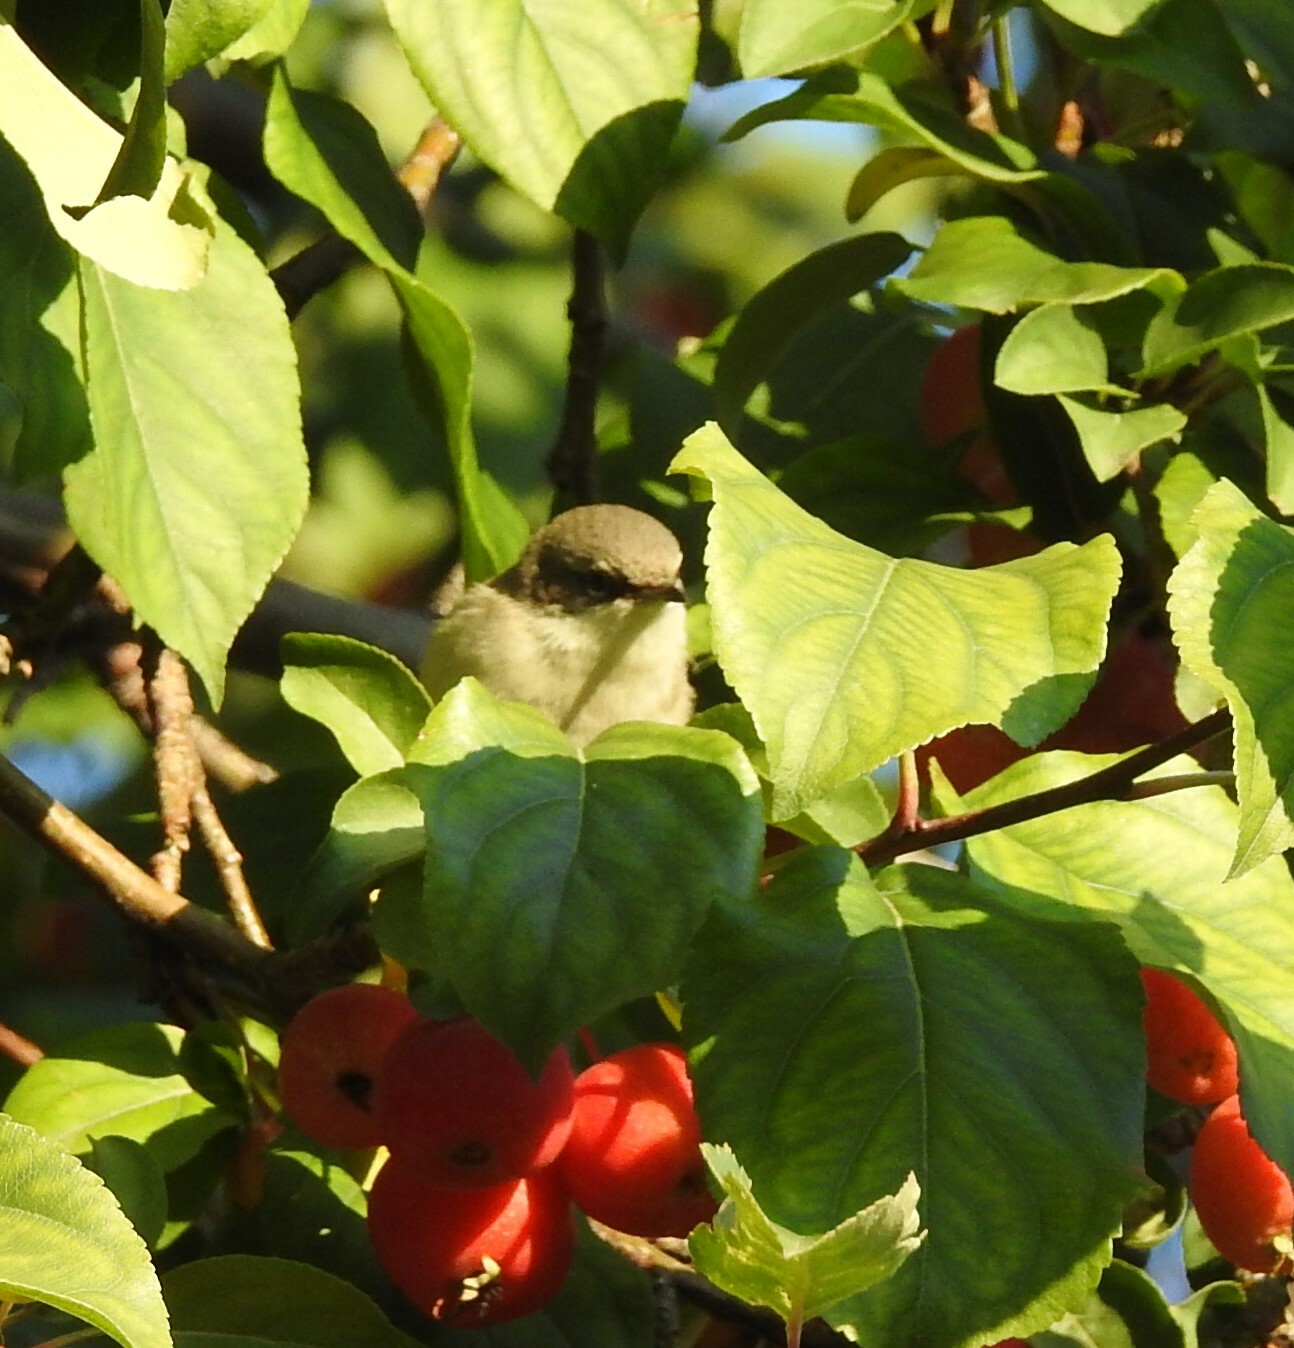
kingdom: Animalia
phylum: Chordata
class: Aves
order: Passeriformes
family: Sylviidae
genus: Sylvia
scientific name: Sylvia curruca
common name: Lesser whitethroat
